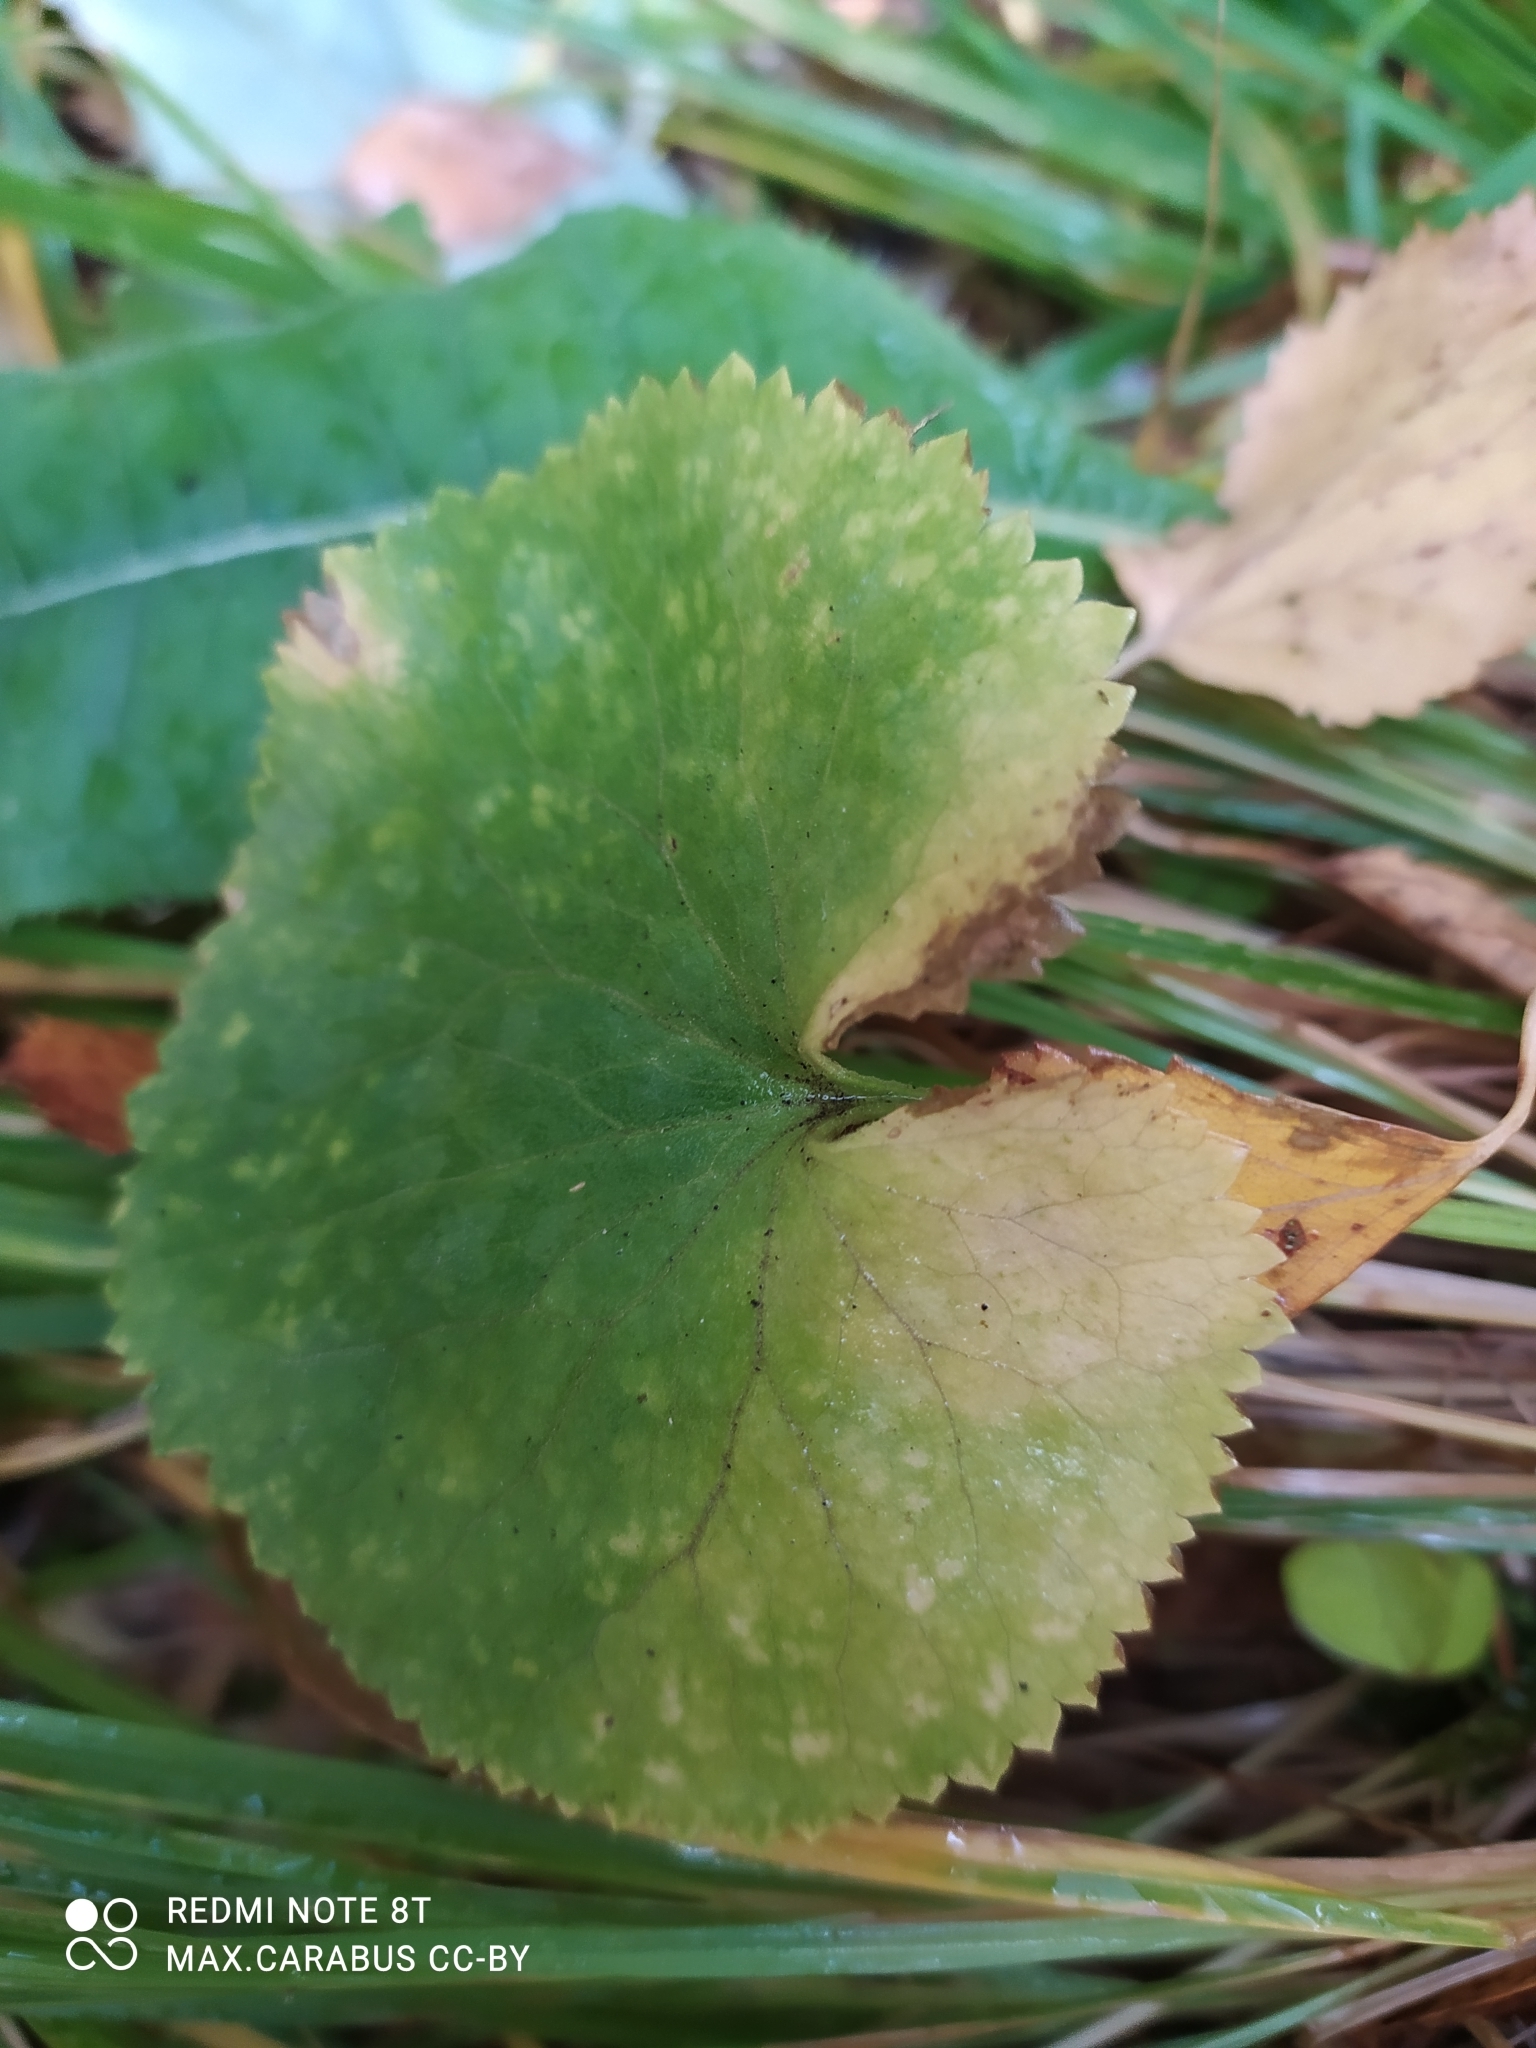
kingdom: Plantae
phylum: Tracheophyta
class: Magnoliopsida
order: Ranunculales
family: Ranunculaceae
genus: Ranunculus
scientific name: Ranunculus cassubicus
